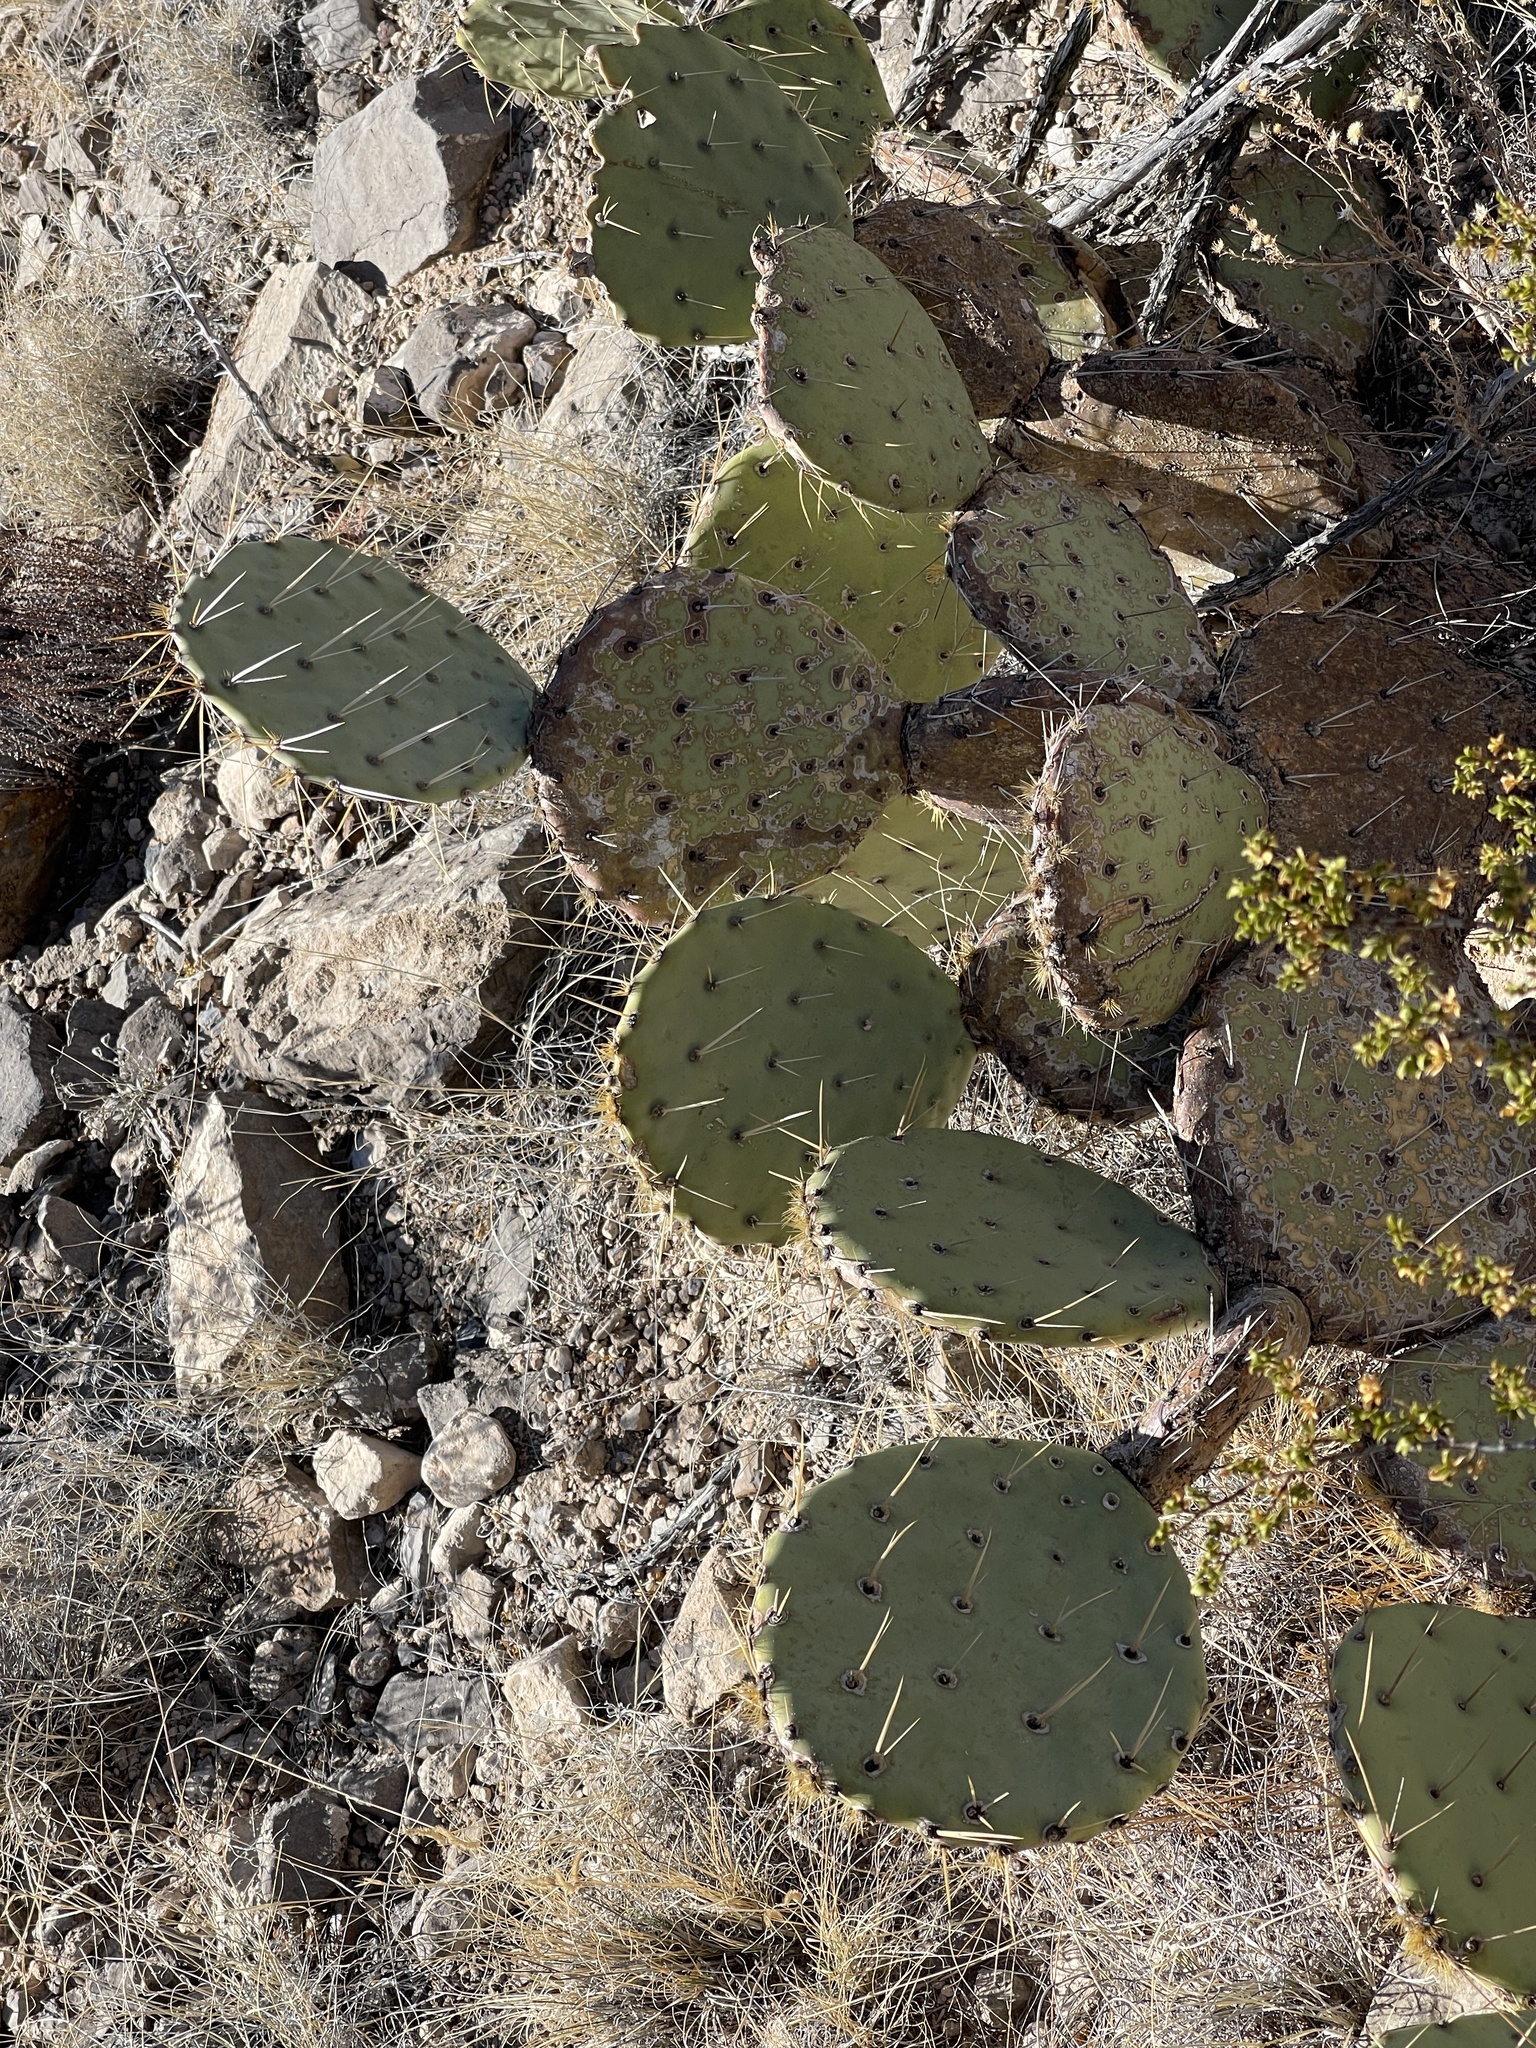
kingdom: Plantae
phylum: Tracheophyta
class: Magnoliopsida
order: Caryophyllales
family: Cactaceae
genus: Opuntia
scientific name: Opuntia engelmannii
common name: Cactus-apple
